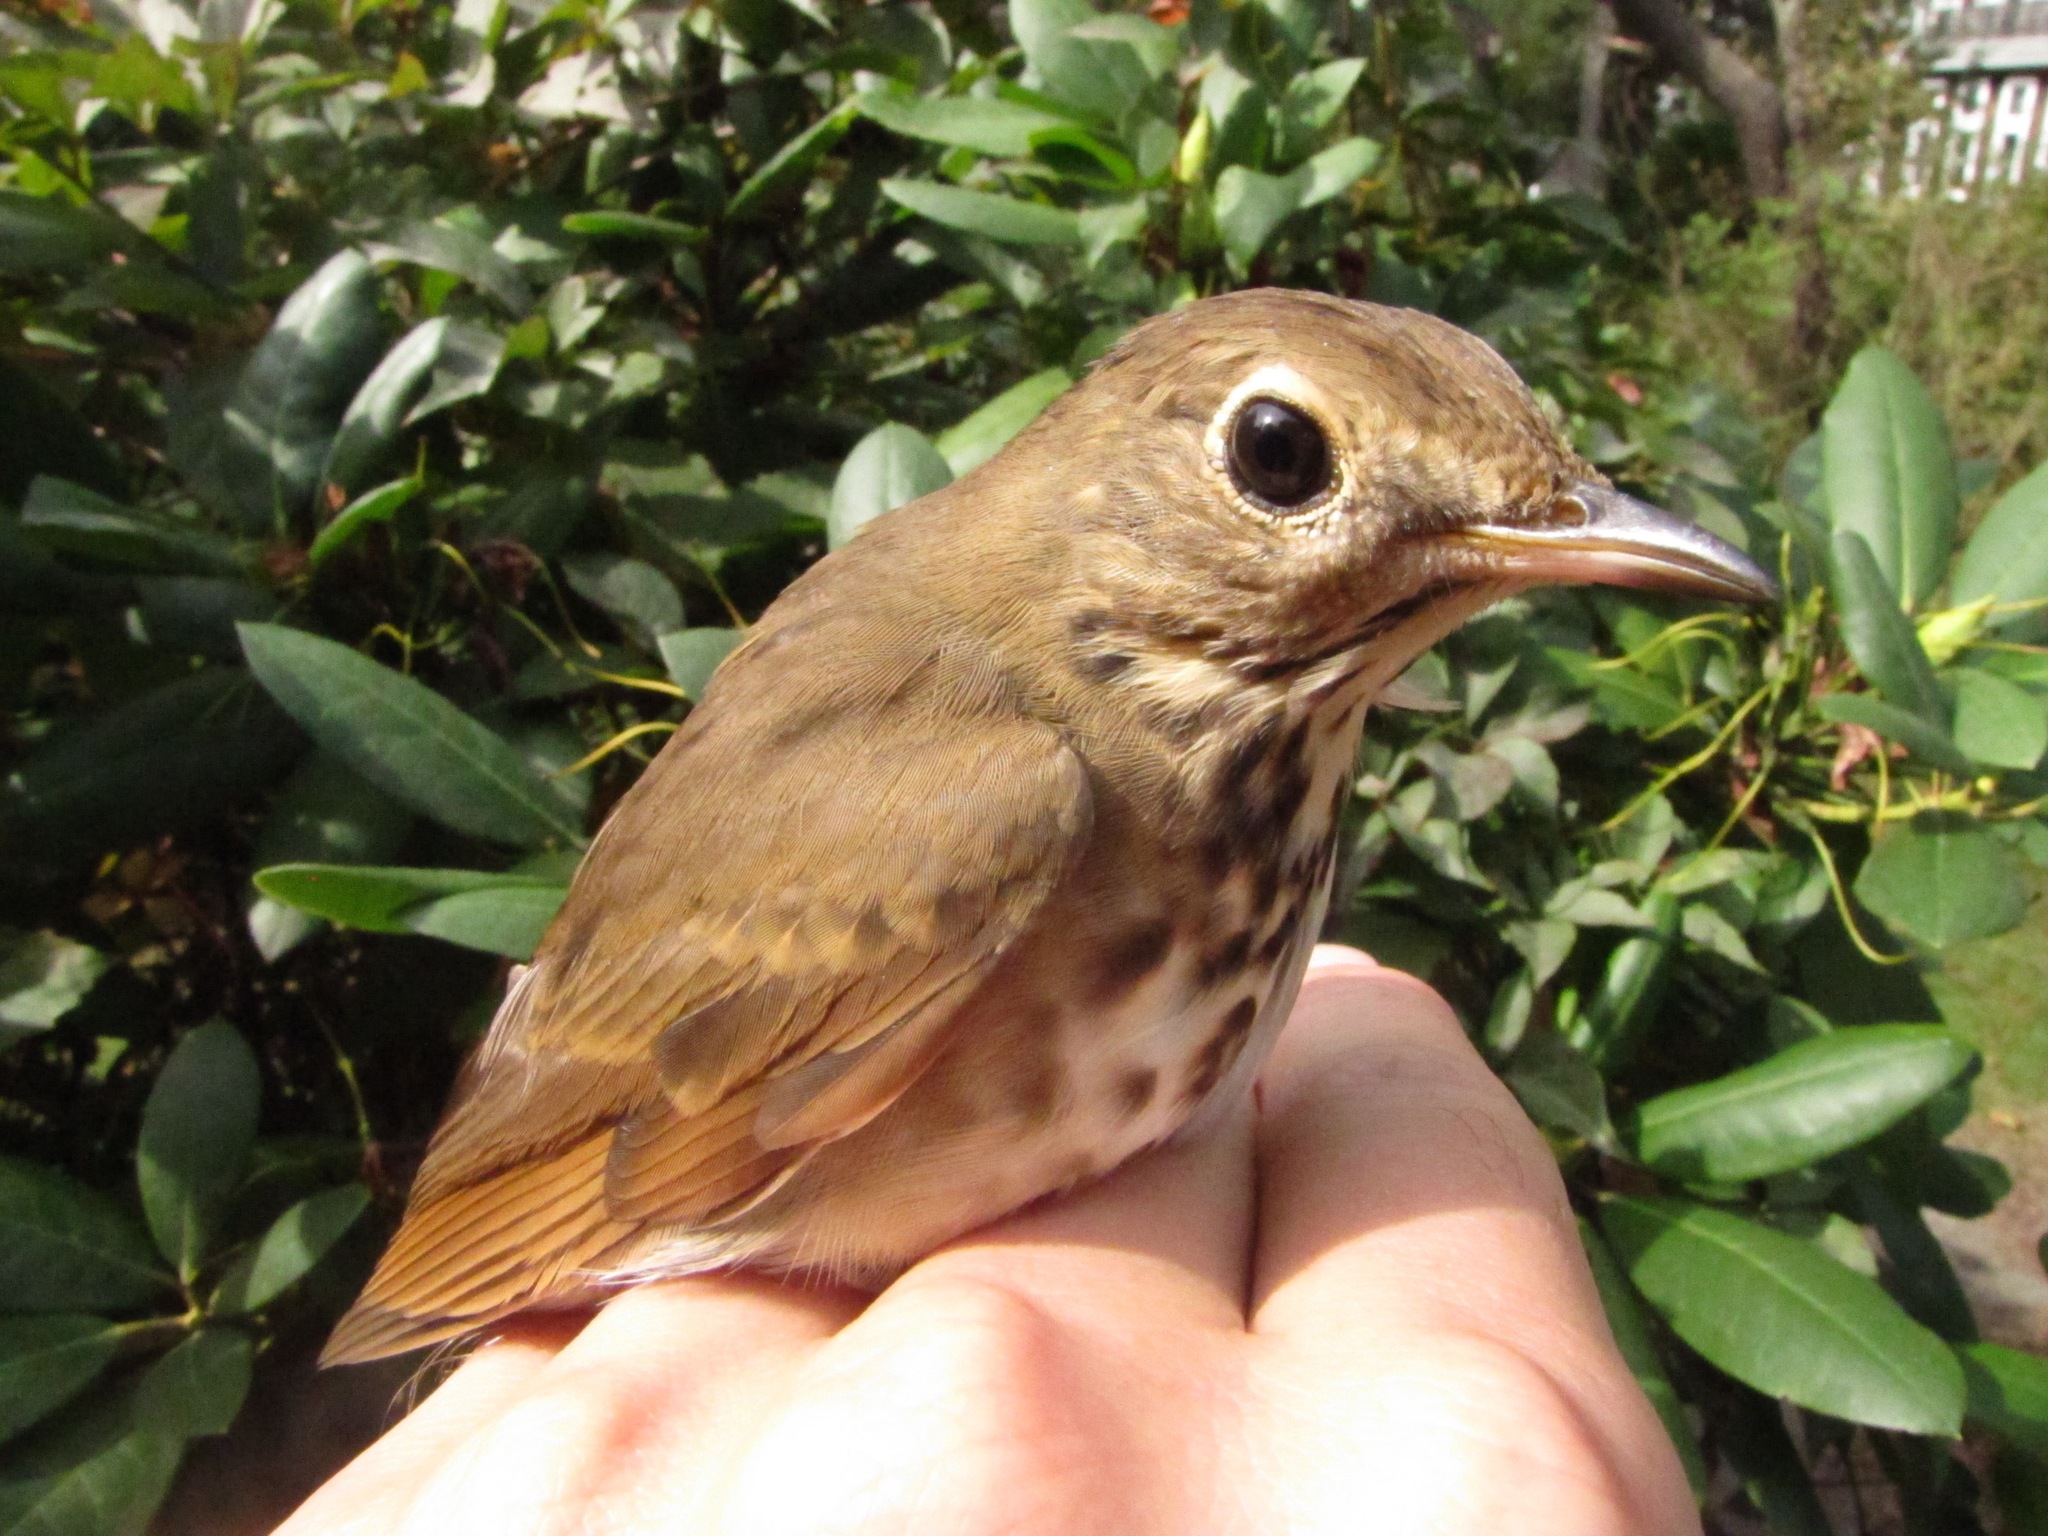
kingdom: Animalia
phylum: Chordata
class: Aves
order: Passeriformes
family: Turdidae
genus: Catharus
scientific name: Catharus guttatus
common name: Hermit thrush
